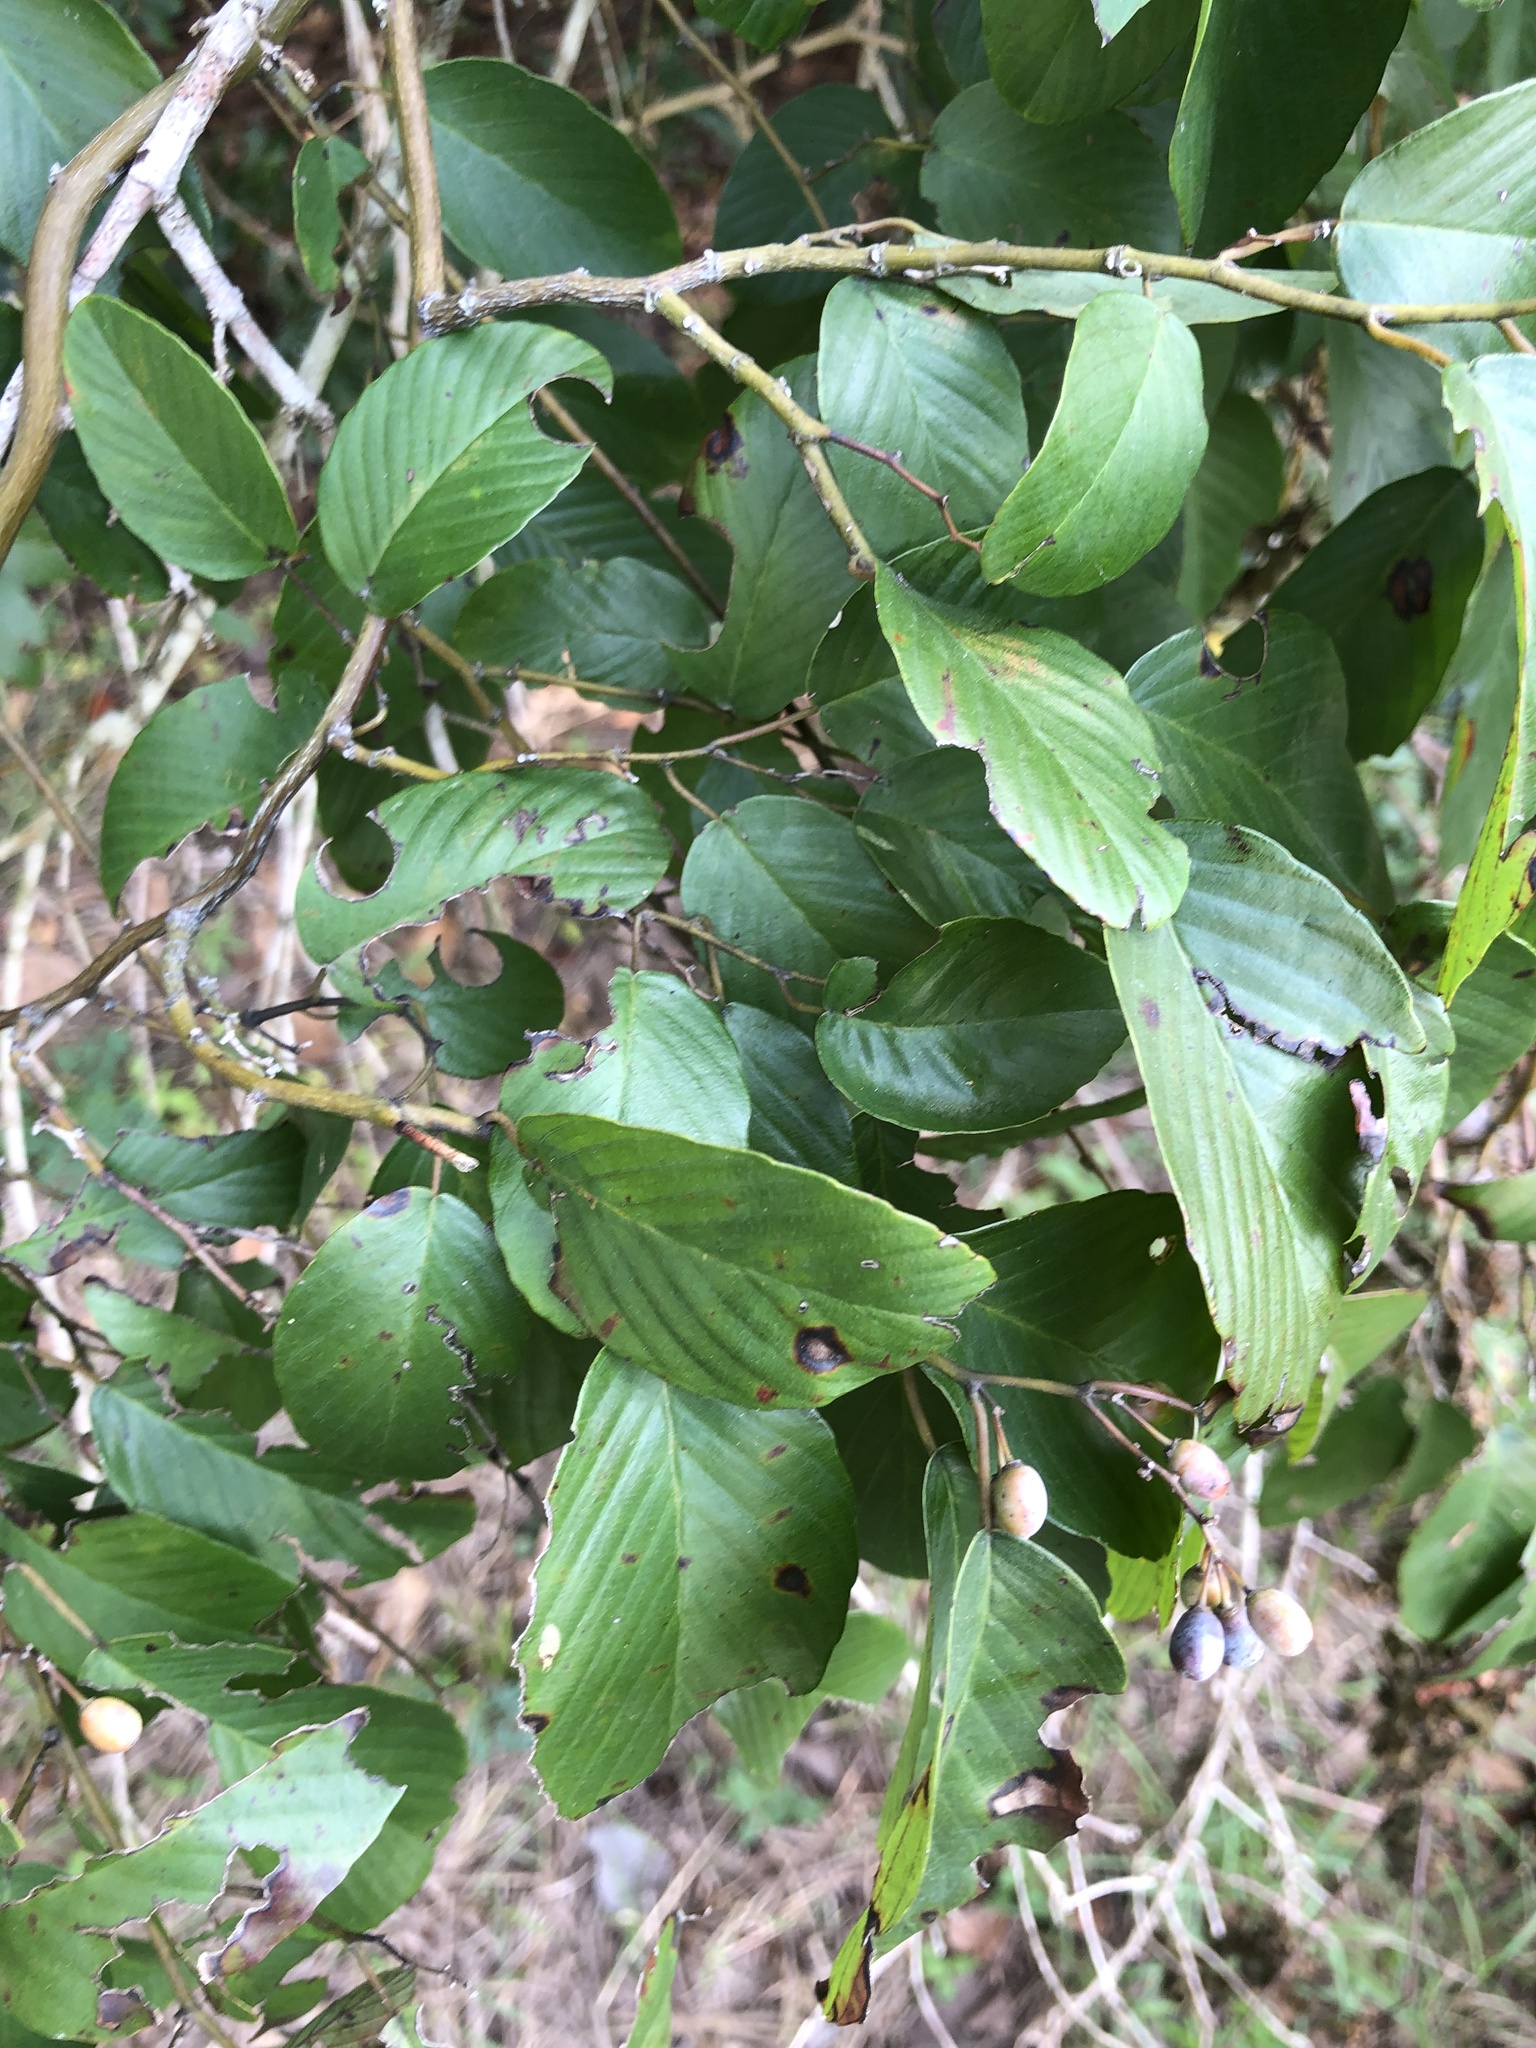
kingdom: Plantae
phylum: Tracheophyta
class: Magnoliopsida
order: Rosales
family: Rhamnaceae
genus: Berchemia
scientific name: Berchemia scandens
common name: Supplejack
